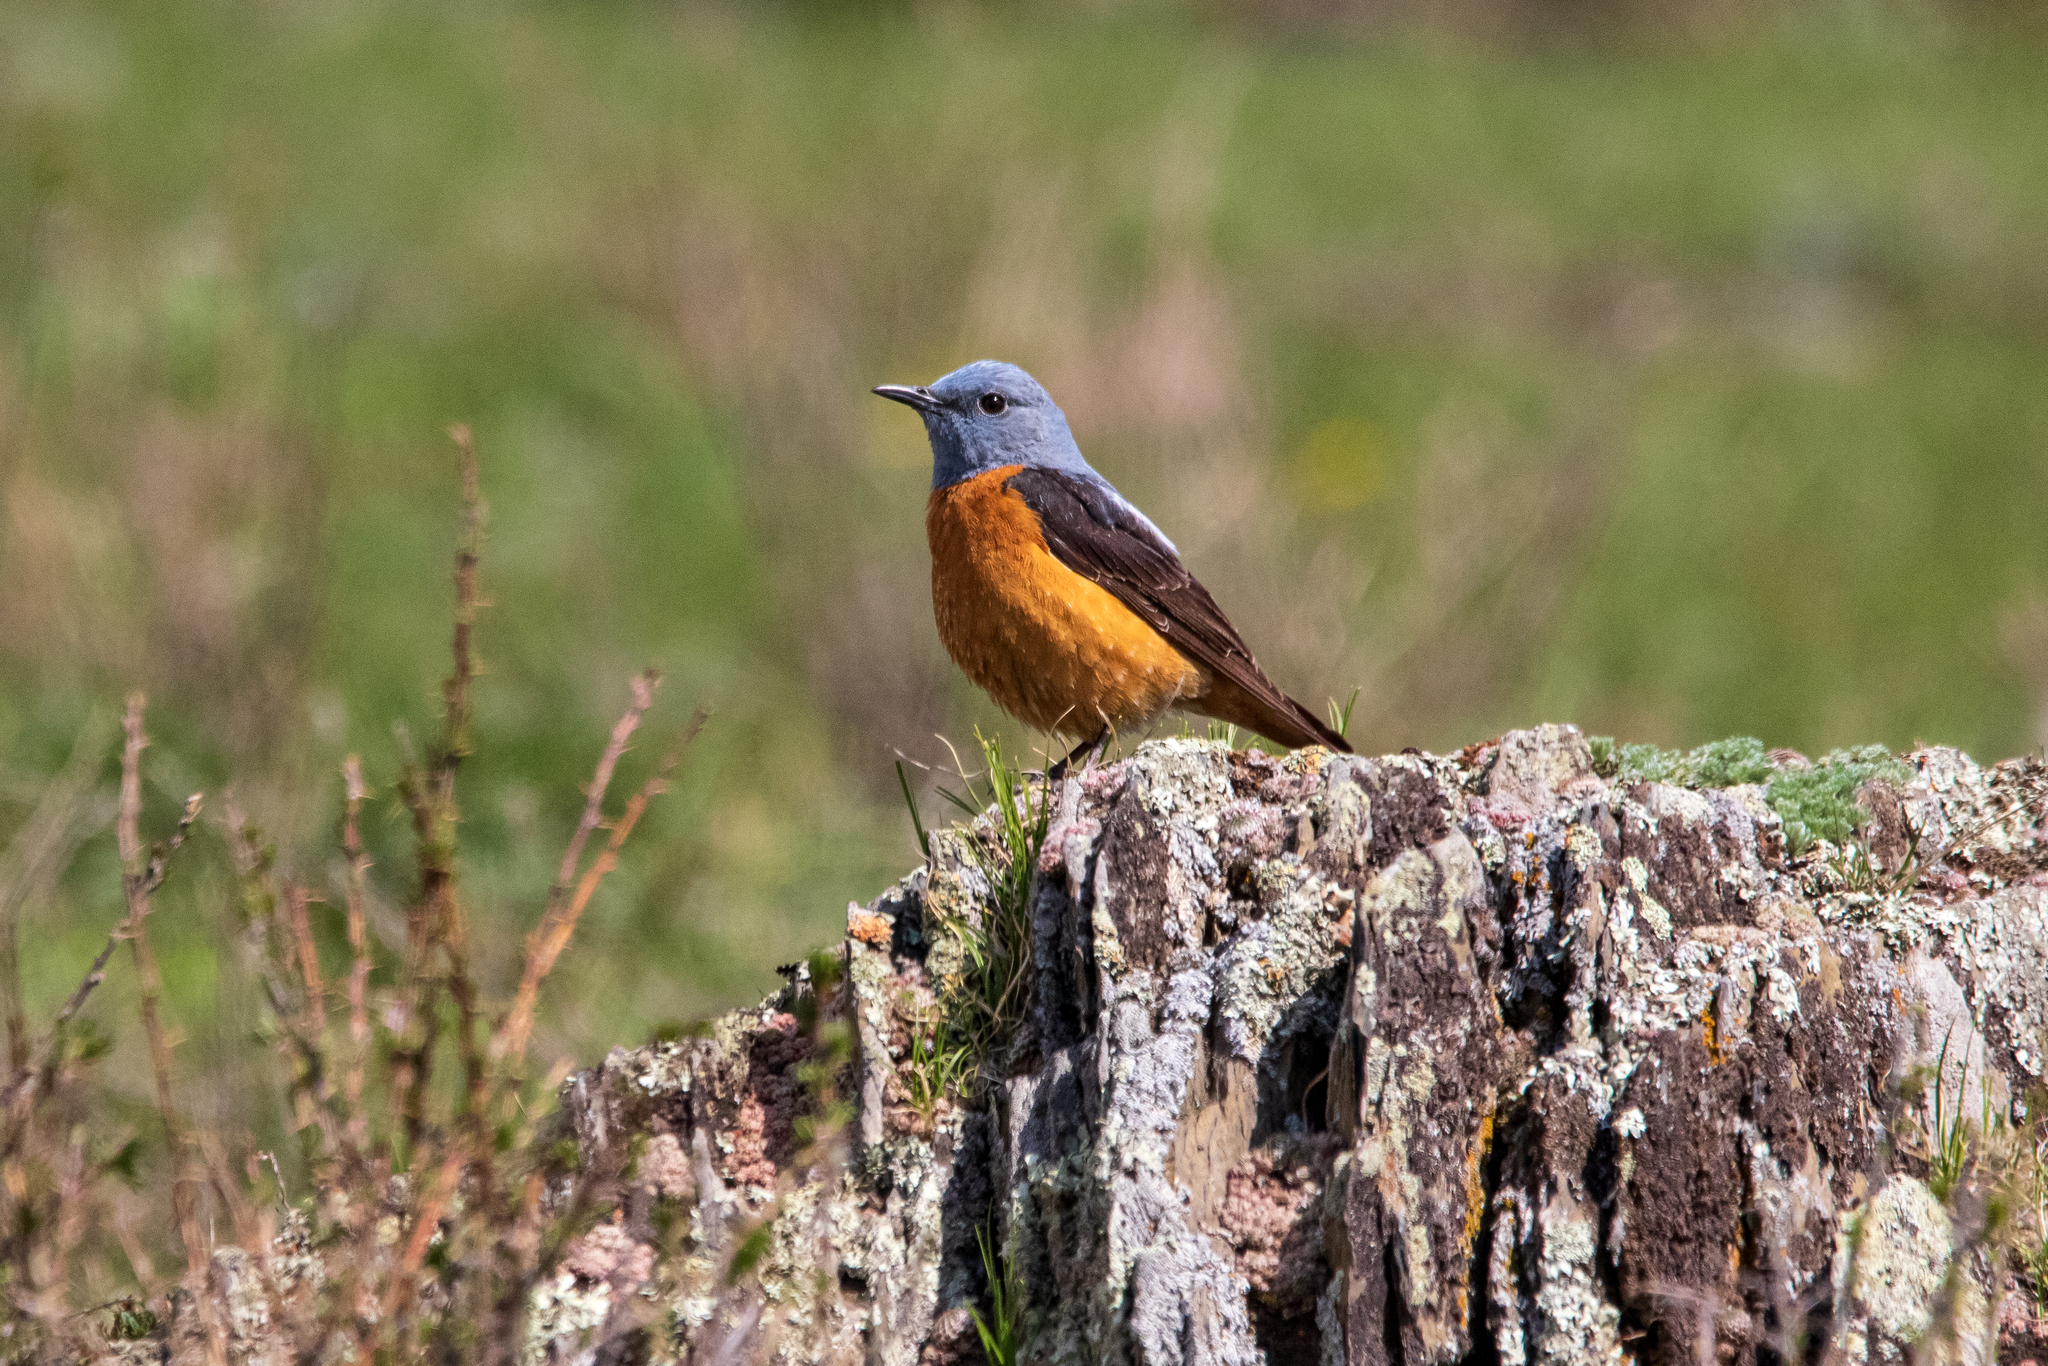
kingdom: Animalia
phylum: Chordata
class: Aves
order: Passeriformes
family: Muscicapidae
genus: Monticola
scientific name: Monticola saxatilis
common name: Rufous-tailed rock thrush
